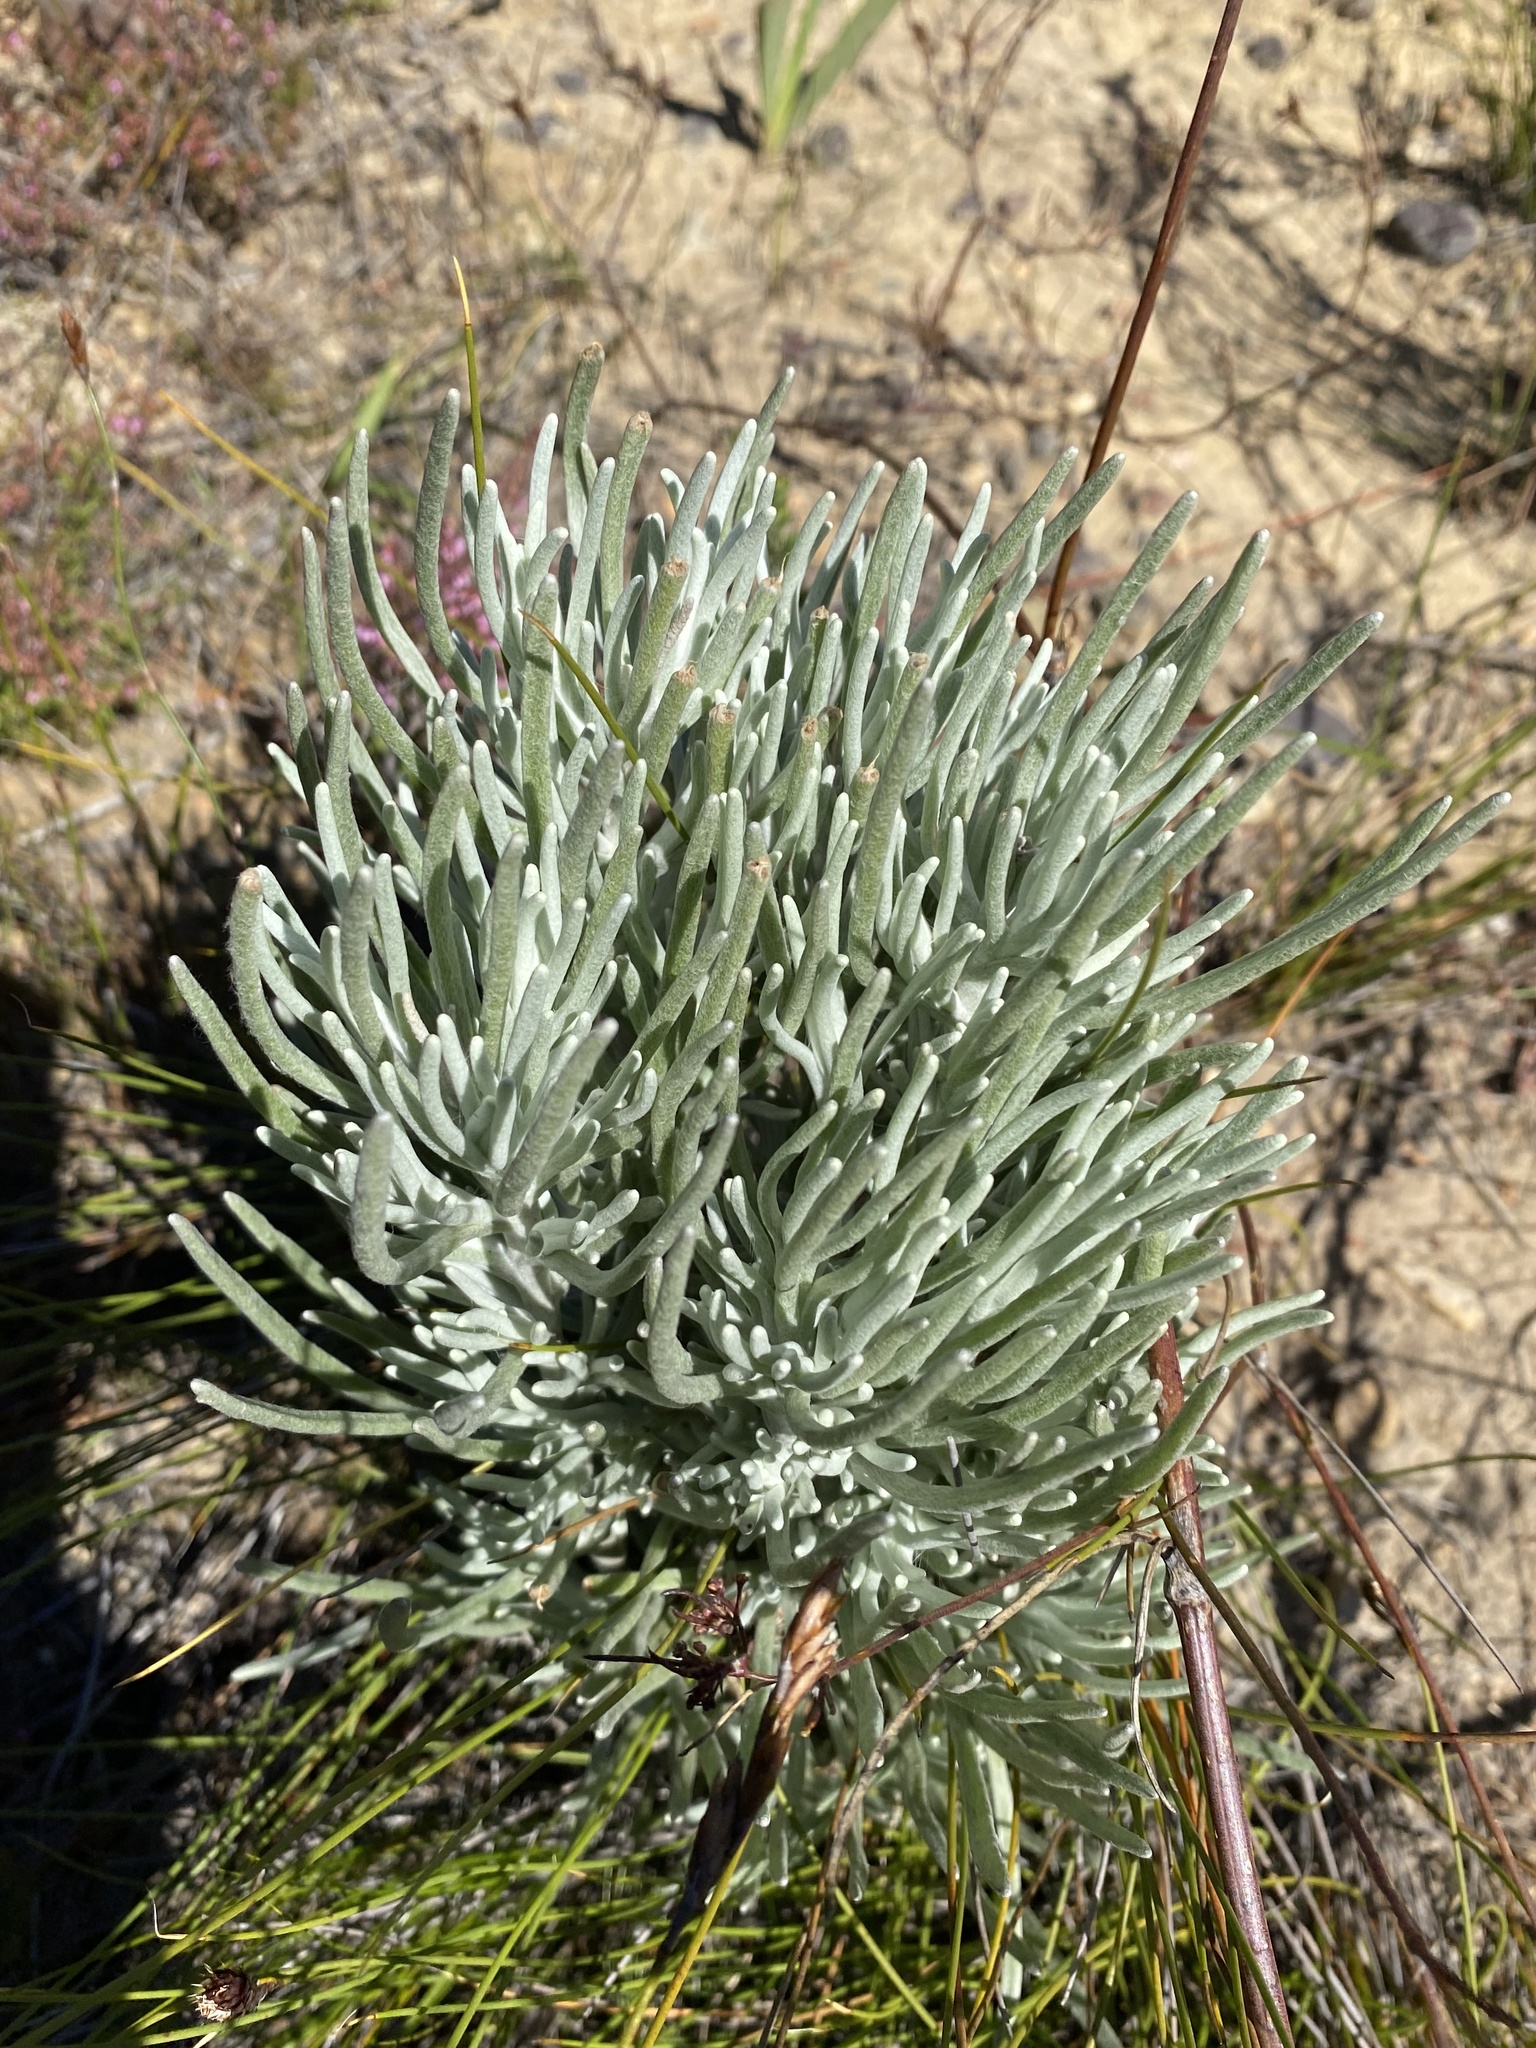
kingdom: Plantae
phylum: Tracheophyta
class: Magnoliopsida
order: Asterales
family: Asteraceae
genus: Syncarpha
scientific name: Syncarpha gnaphaloides
